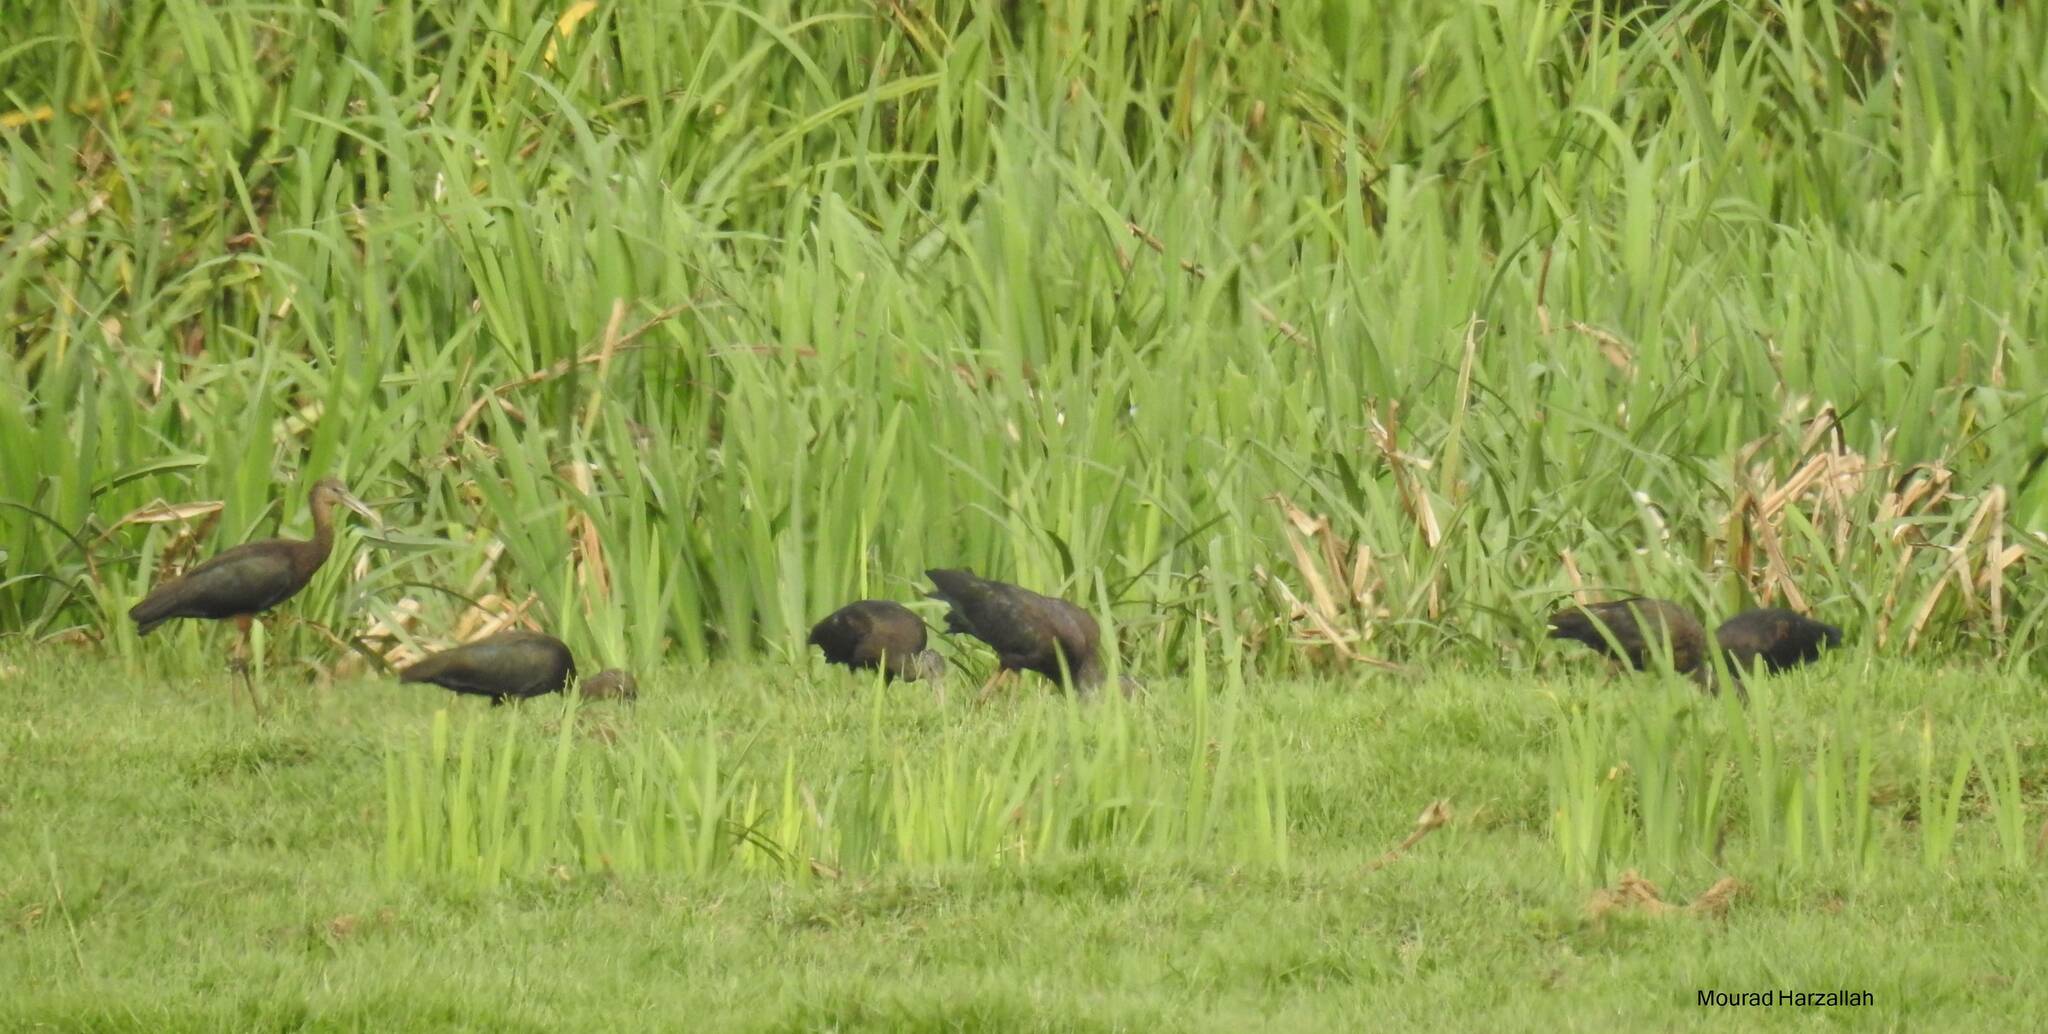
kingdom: Animalia
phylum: Chordata
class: Aves
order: Pelecaniformes
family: Threskiornithidae
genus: Plegadis
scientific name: Plegadis falcinellus
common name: Glossy ibis
